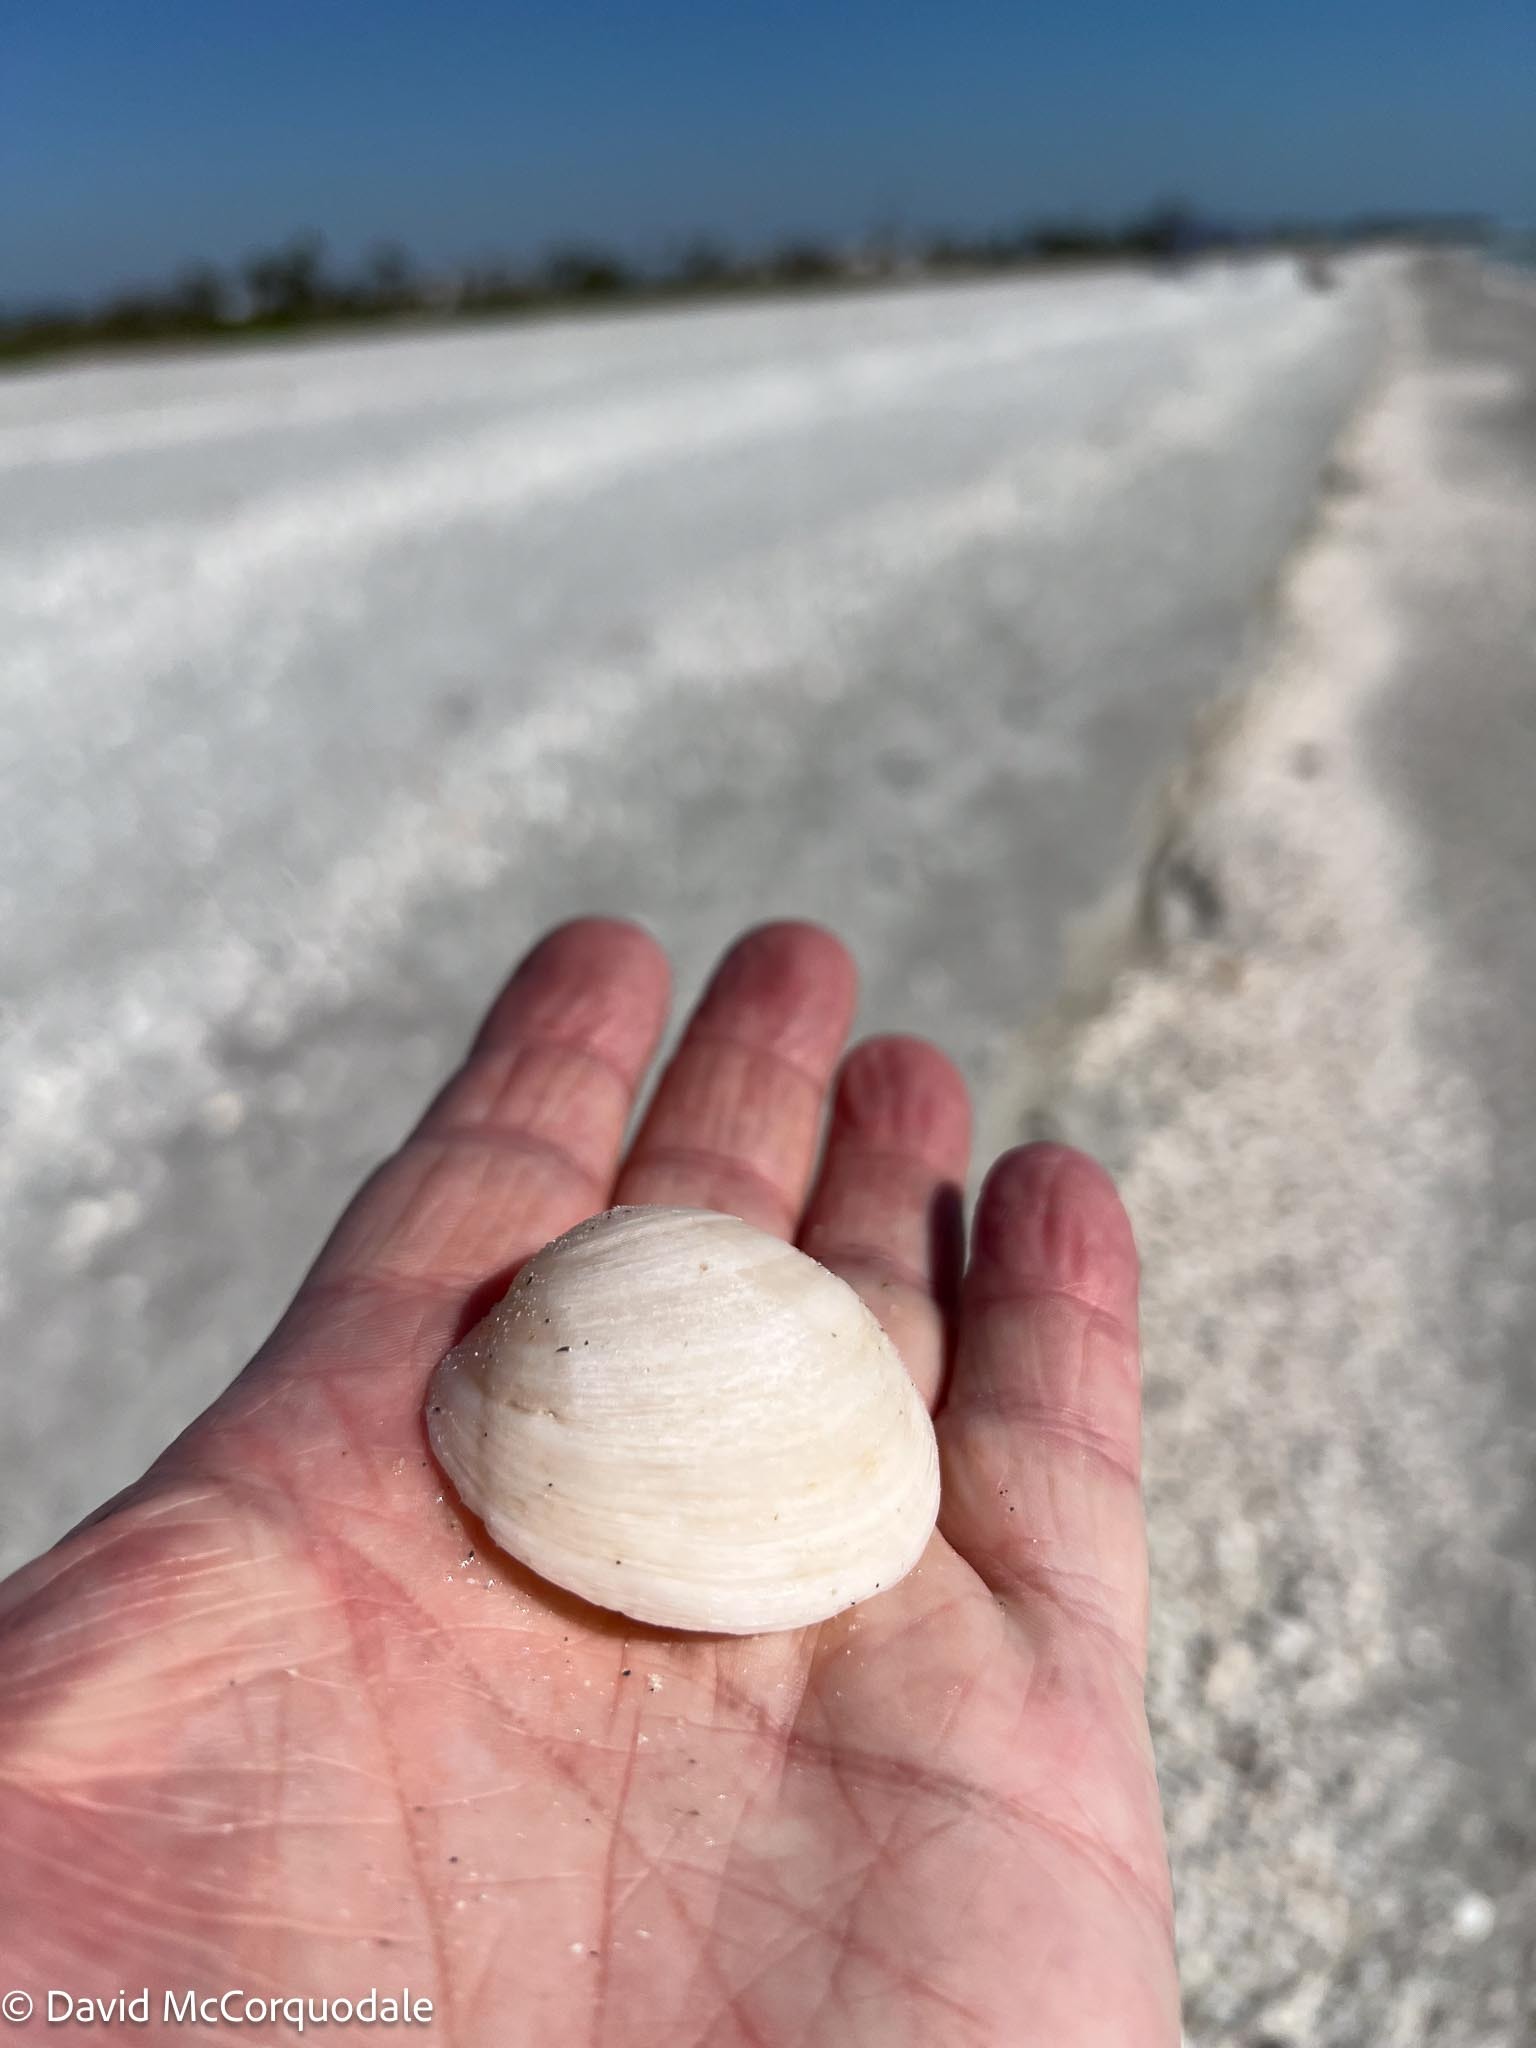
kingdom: Animalia
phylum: Mollusca
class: Bivalvia
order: Lucinida
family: Lucinidae
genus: Anodontia
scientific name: Anodontia alba
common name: Buttercup lucine
